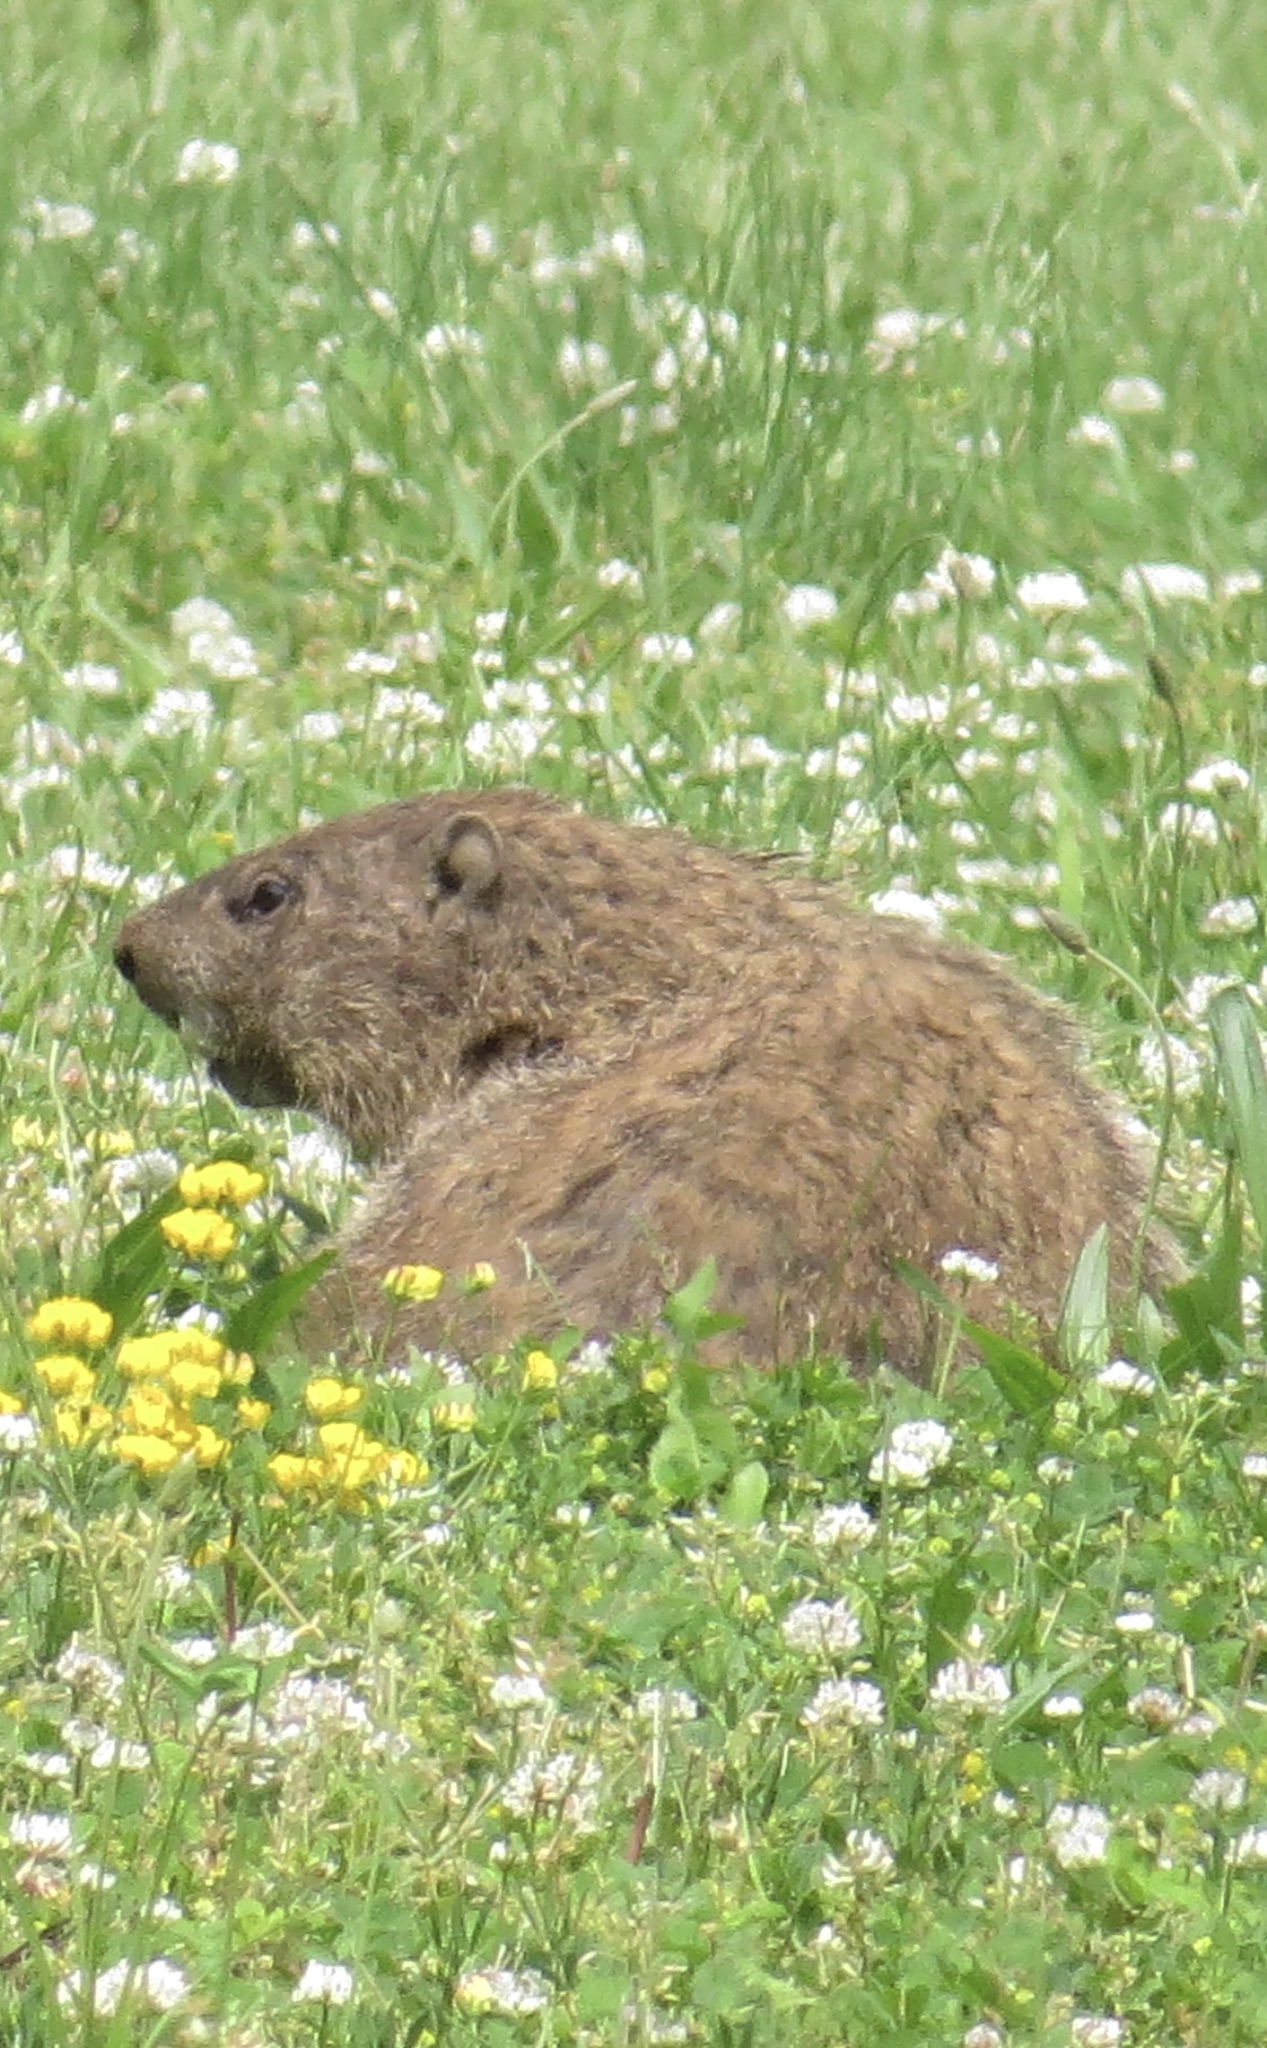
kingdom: Animalia
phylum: Chordata
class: Mammalia
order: Rodentia
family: Sciuridae
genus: Marmota
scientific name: Marmota monax
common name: Groundhog
